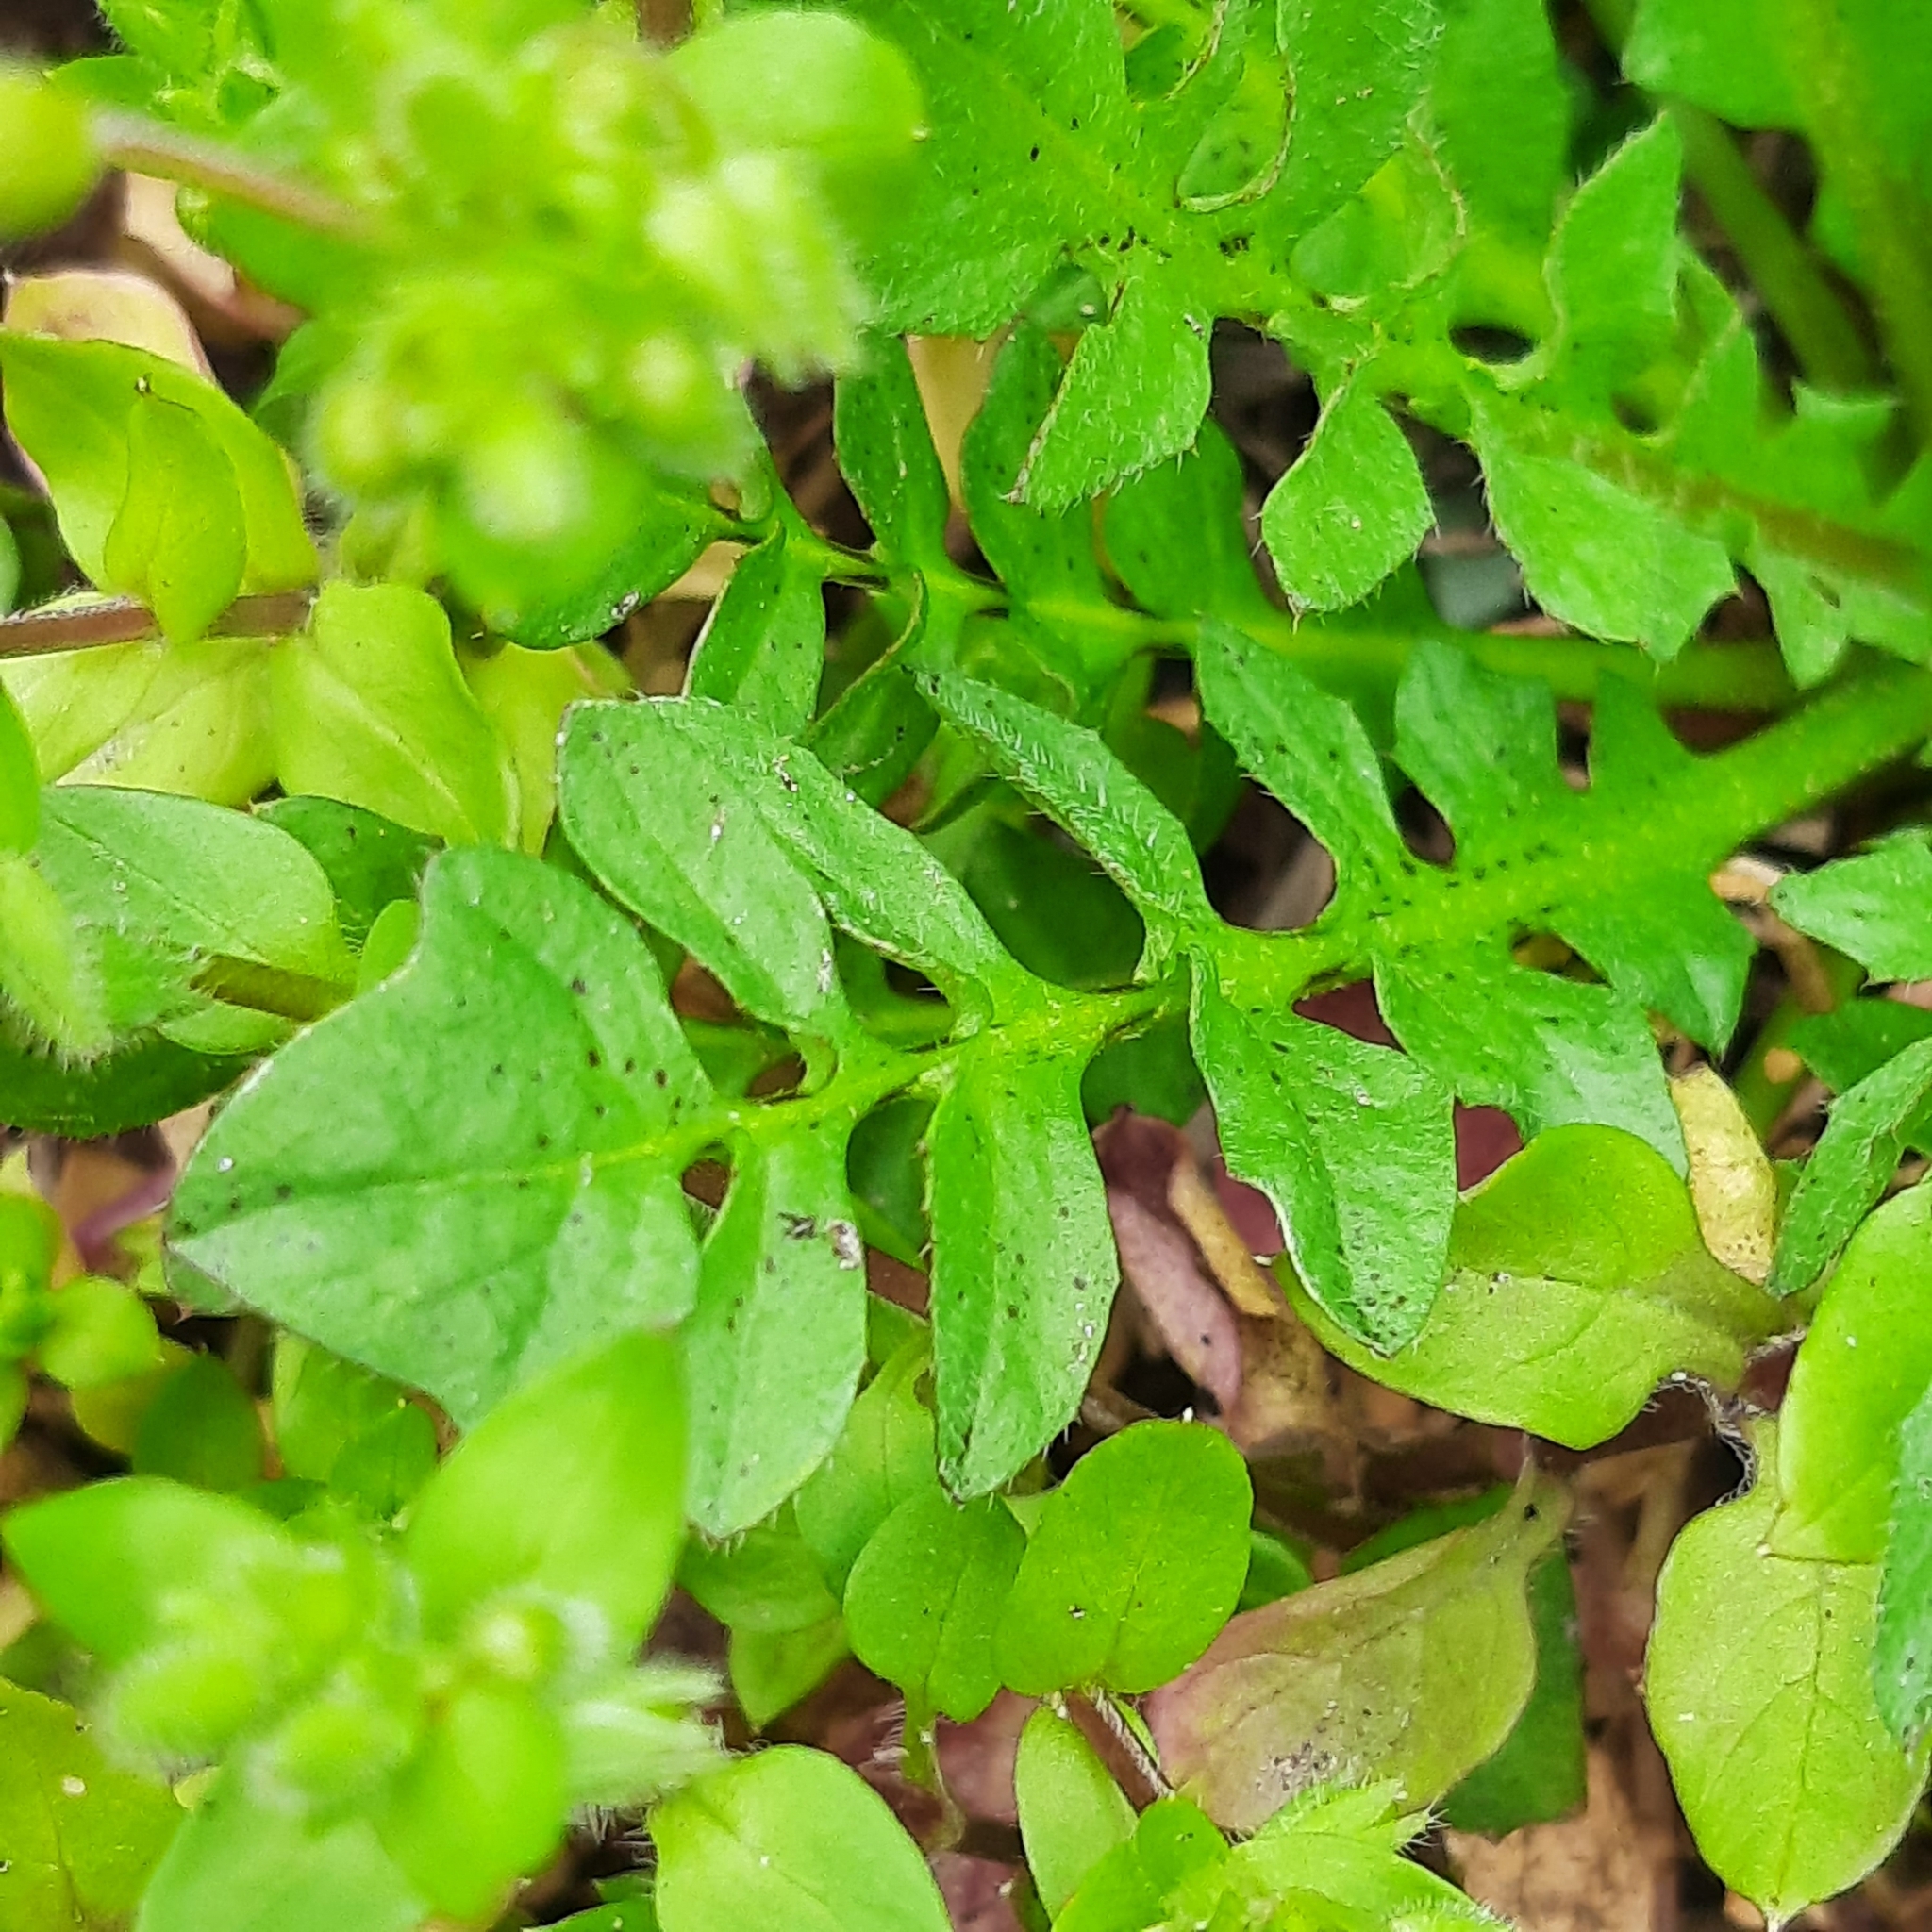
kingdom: Plantae
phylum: Tracheophyta
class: Magnoliopsida
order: Brassicales
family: Brassicaceae
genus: Capsella
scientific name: Capsella bursa-pastoris
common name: Shepherd's purse
